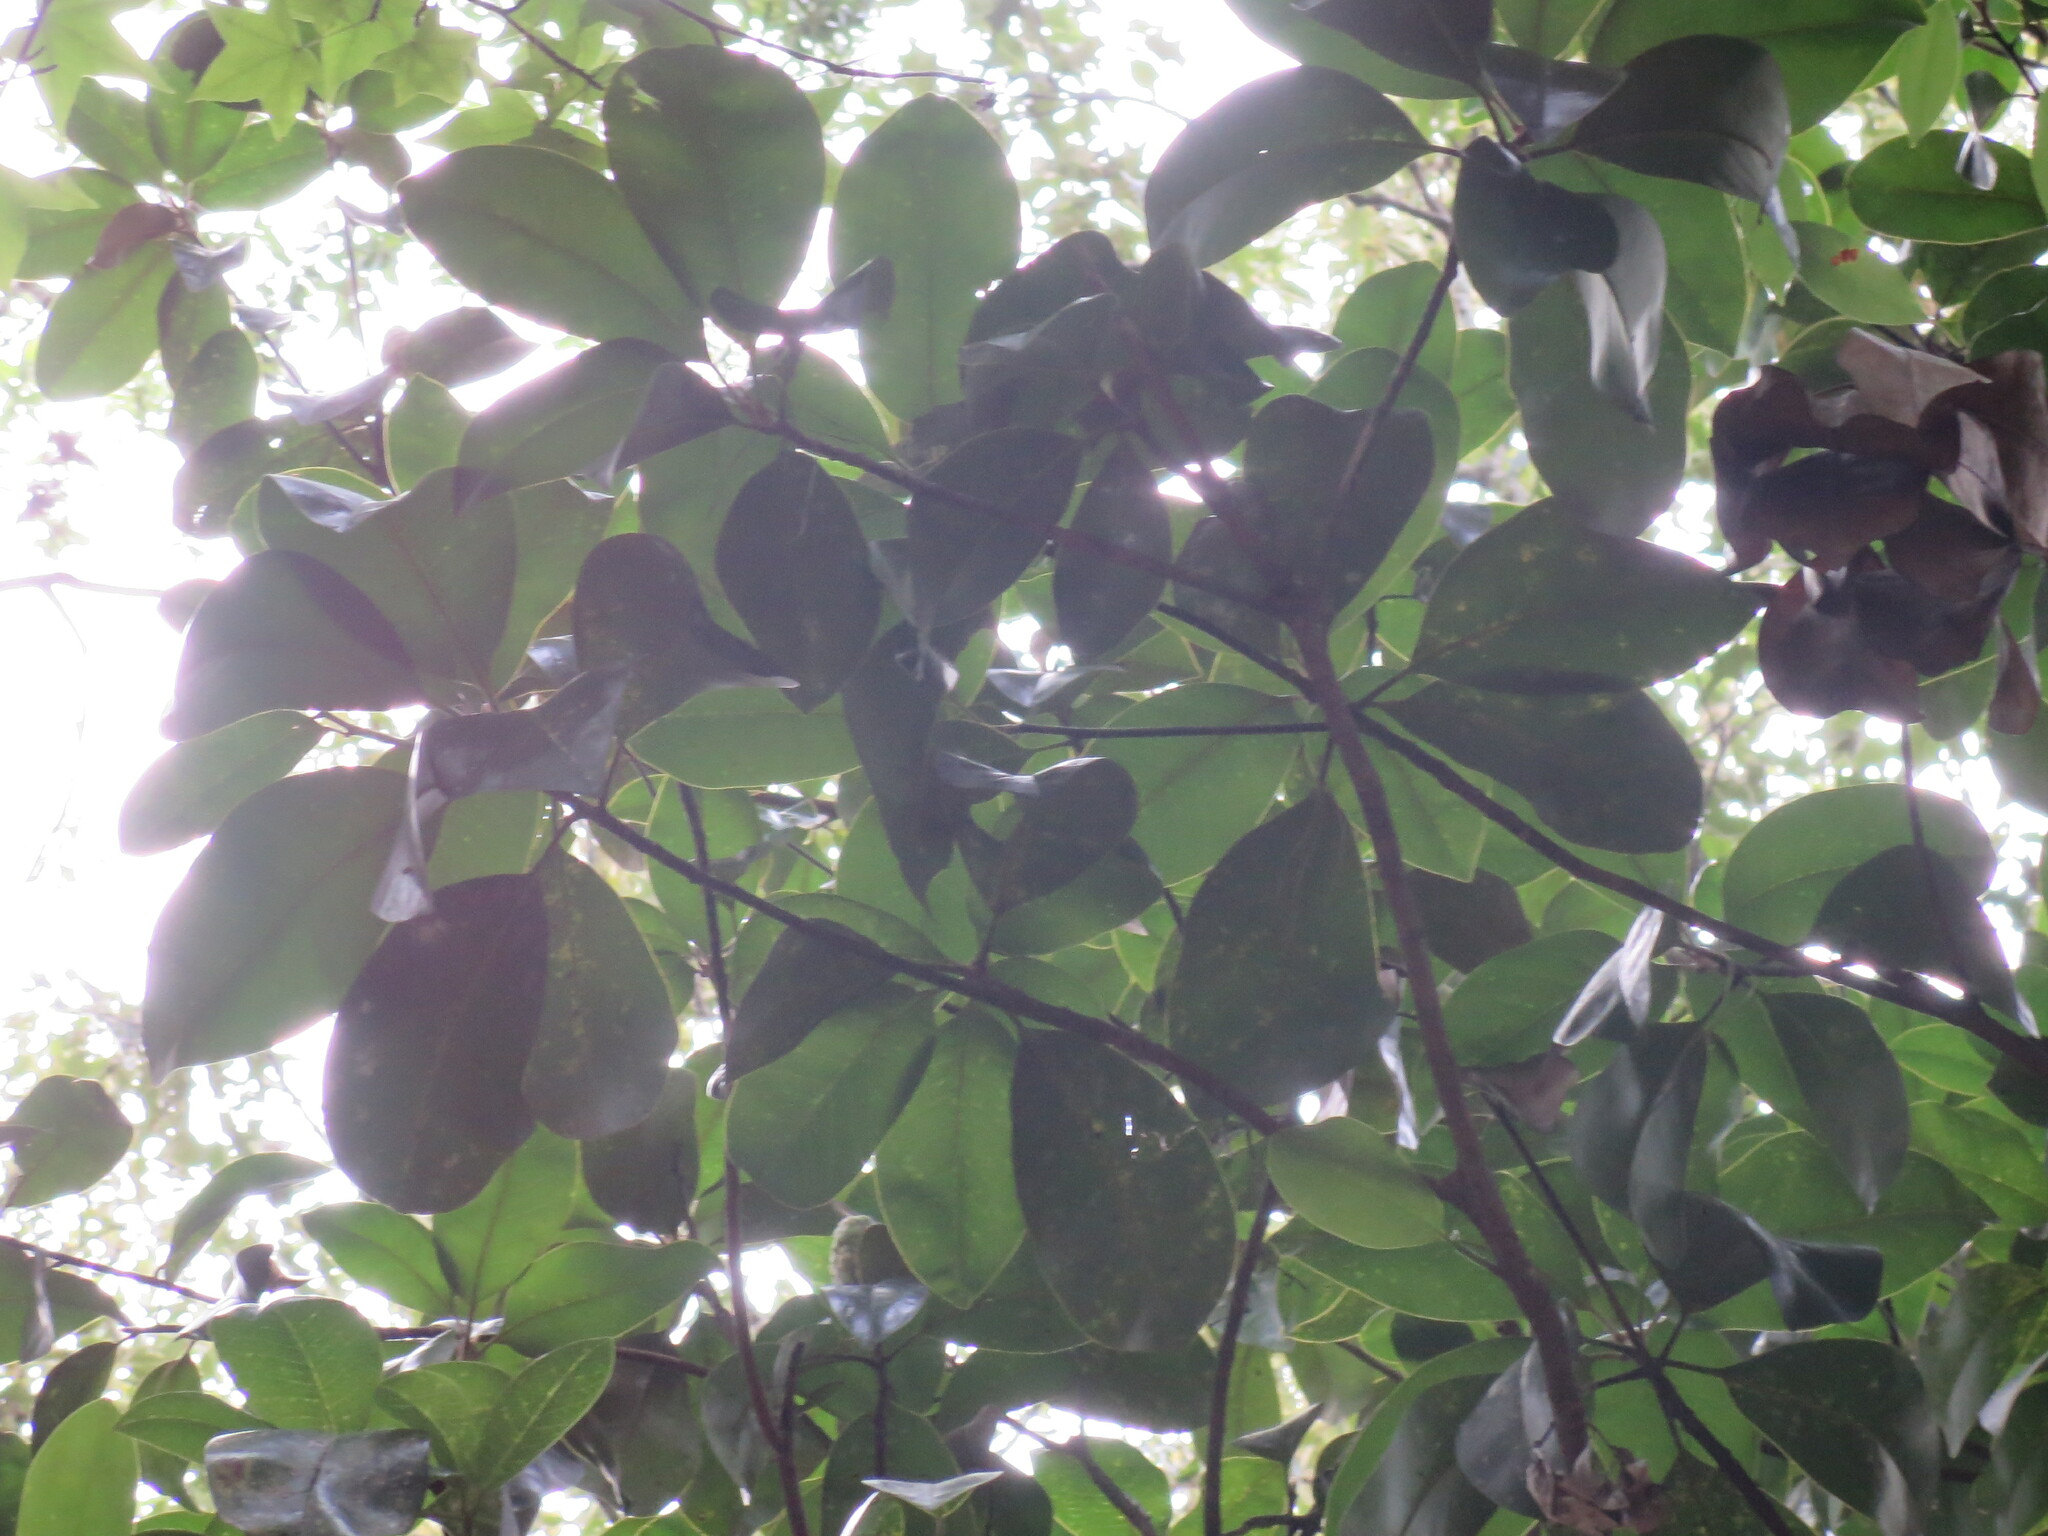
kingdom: Plantae
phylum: Tracheophyta
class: Magnoliopsida
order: Magnoliales
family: Magnoliaceae
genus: Magnolia
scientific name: Magnolia grandiflora
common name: Southern magnolia
